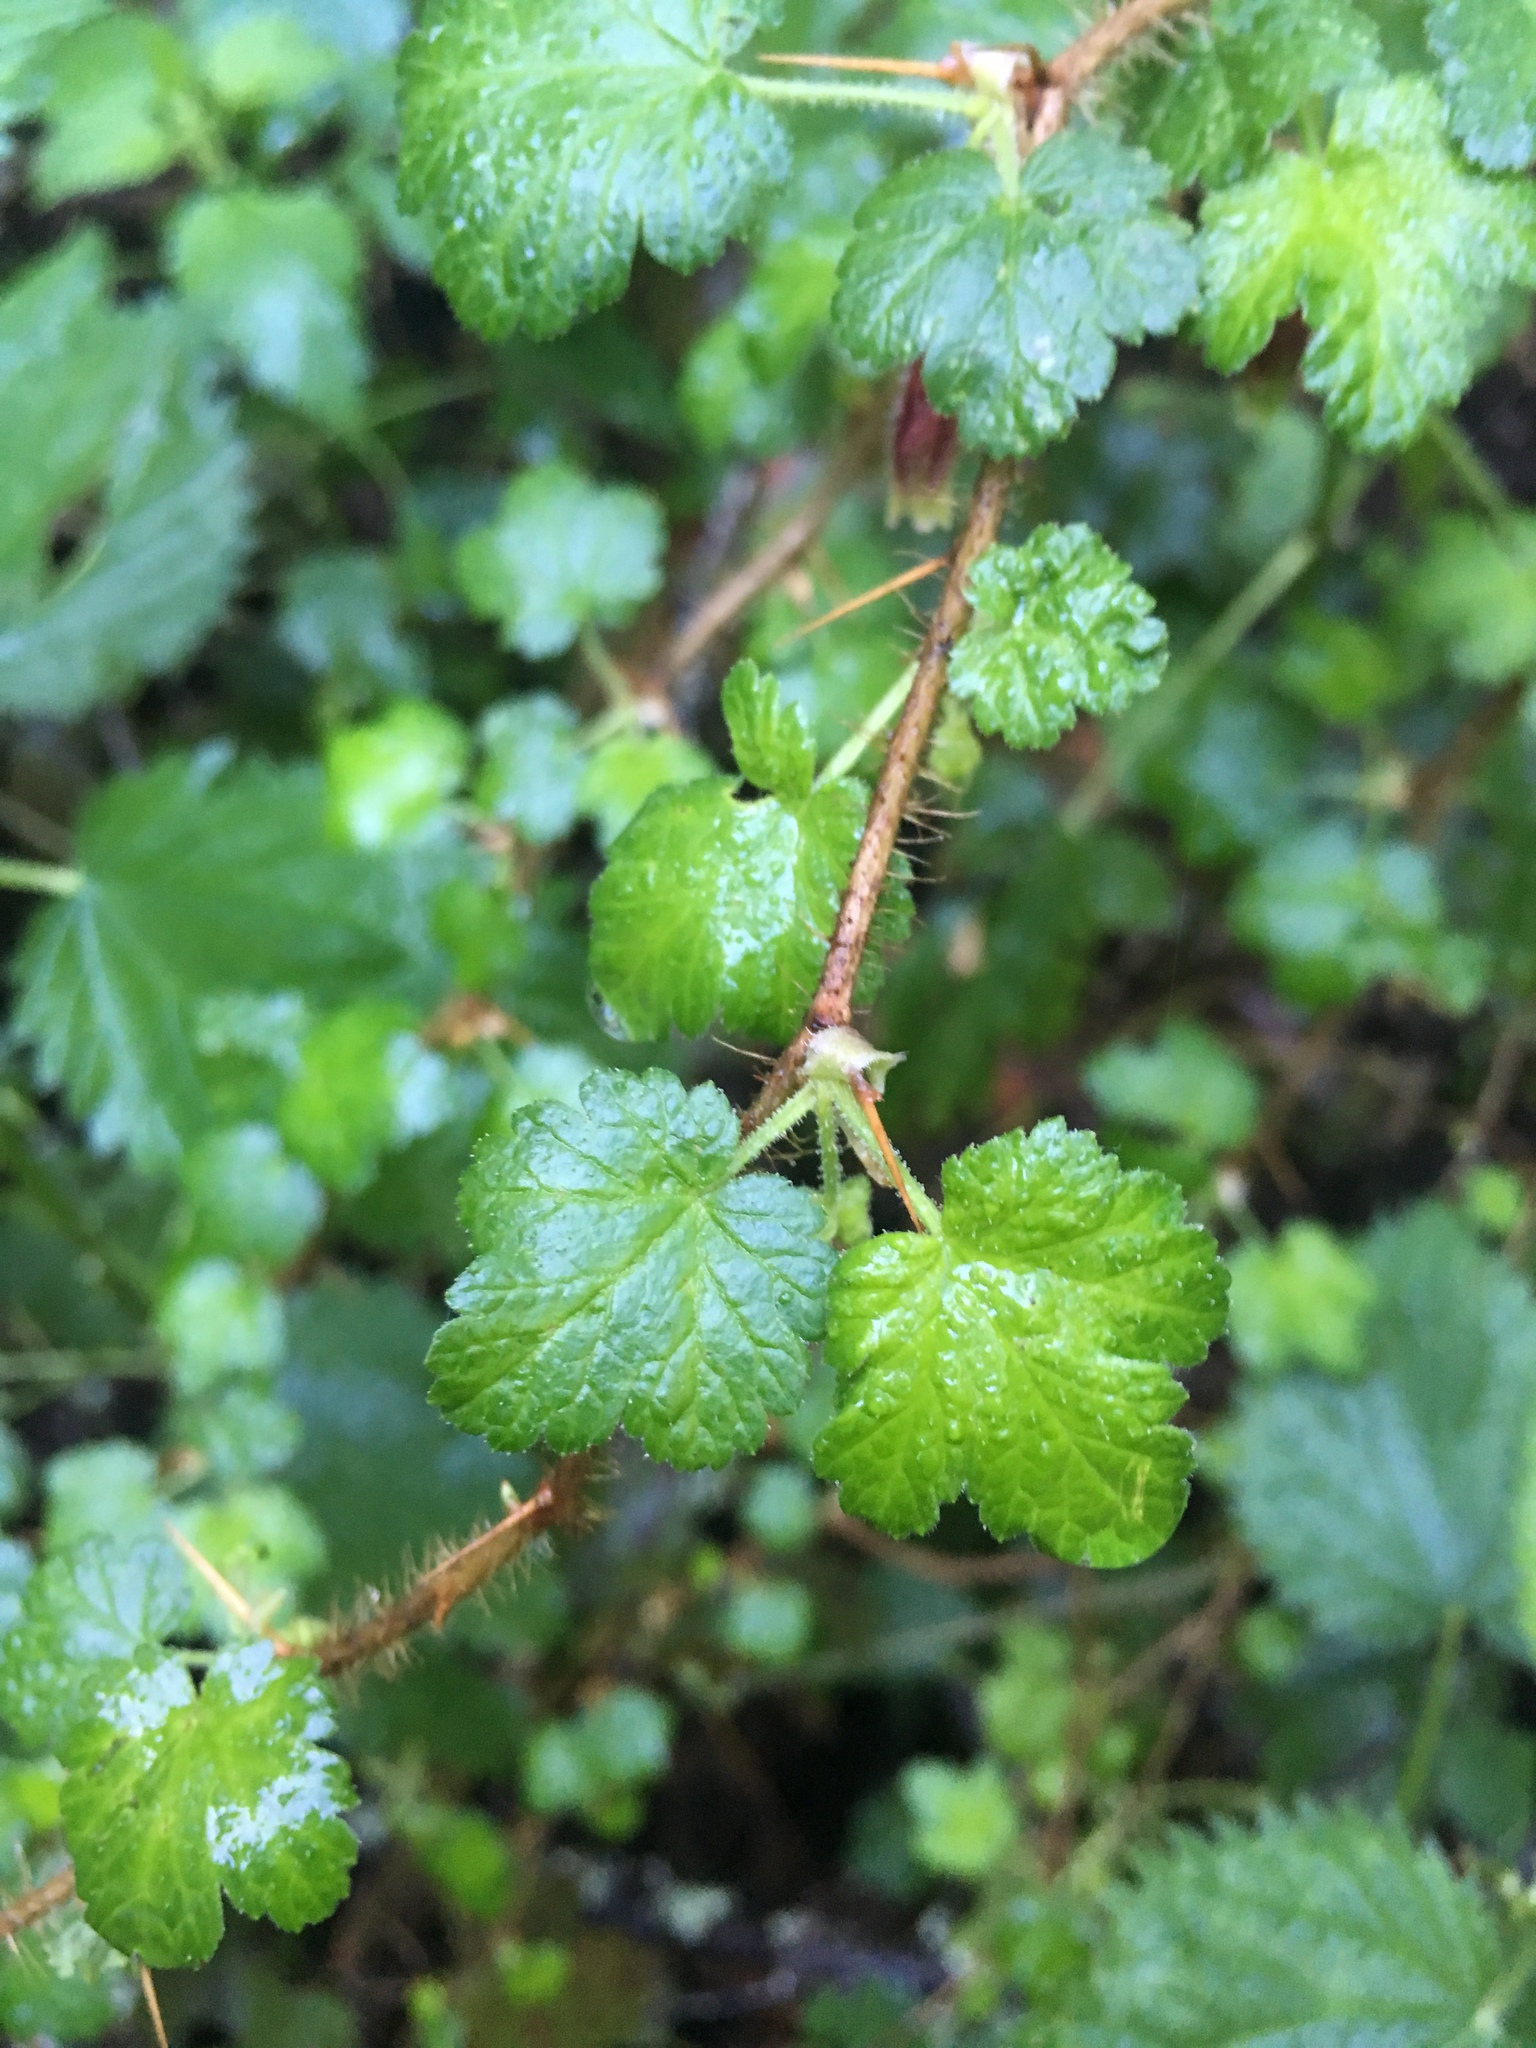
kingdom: Plantae
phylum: Tracheophyta
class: Magnoliopsida
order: Saxifragales
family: Grossulariaceae
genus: Ribes
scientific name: Ribes menziesii
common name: Canyon gooseberry
